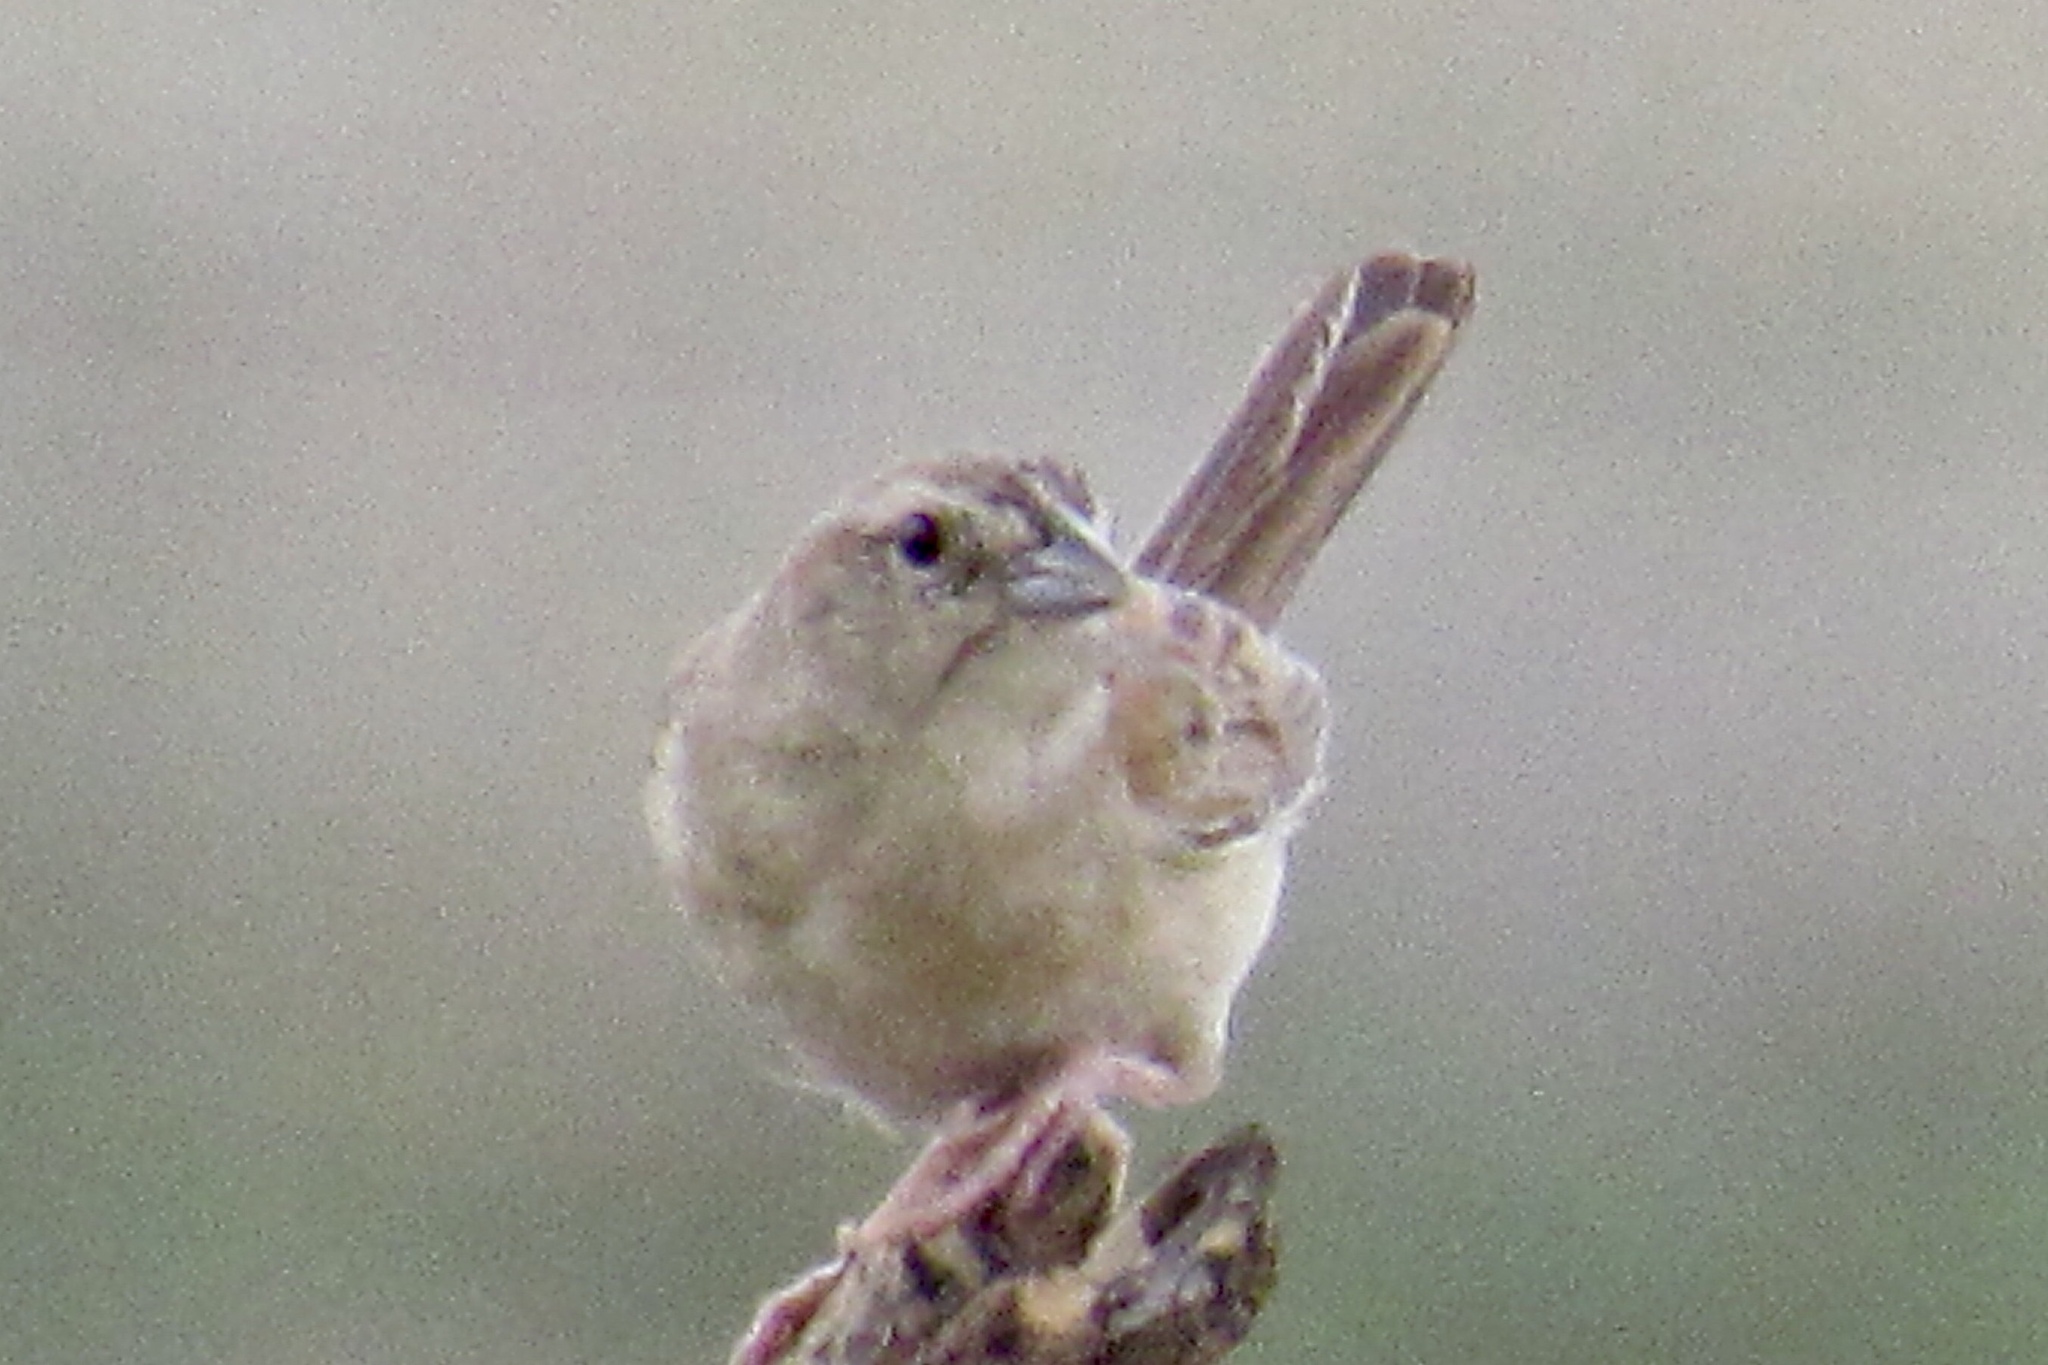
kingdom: Animalia
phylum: Chordata
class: Aves
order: Passeriformes
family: Passerellidae
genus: Peucaea
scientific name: Peucaea botterii
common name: Botteri's sparrow
